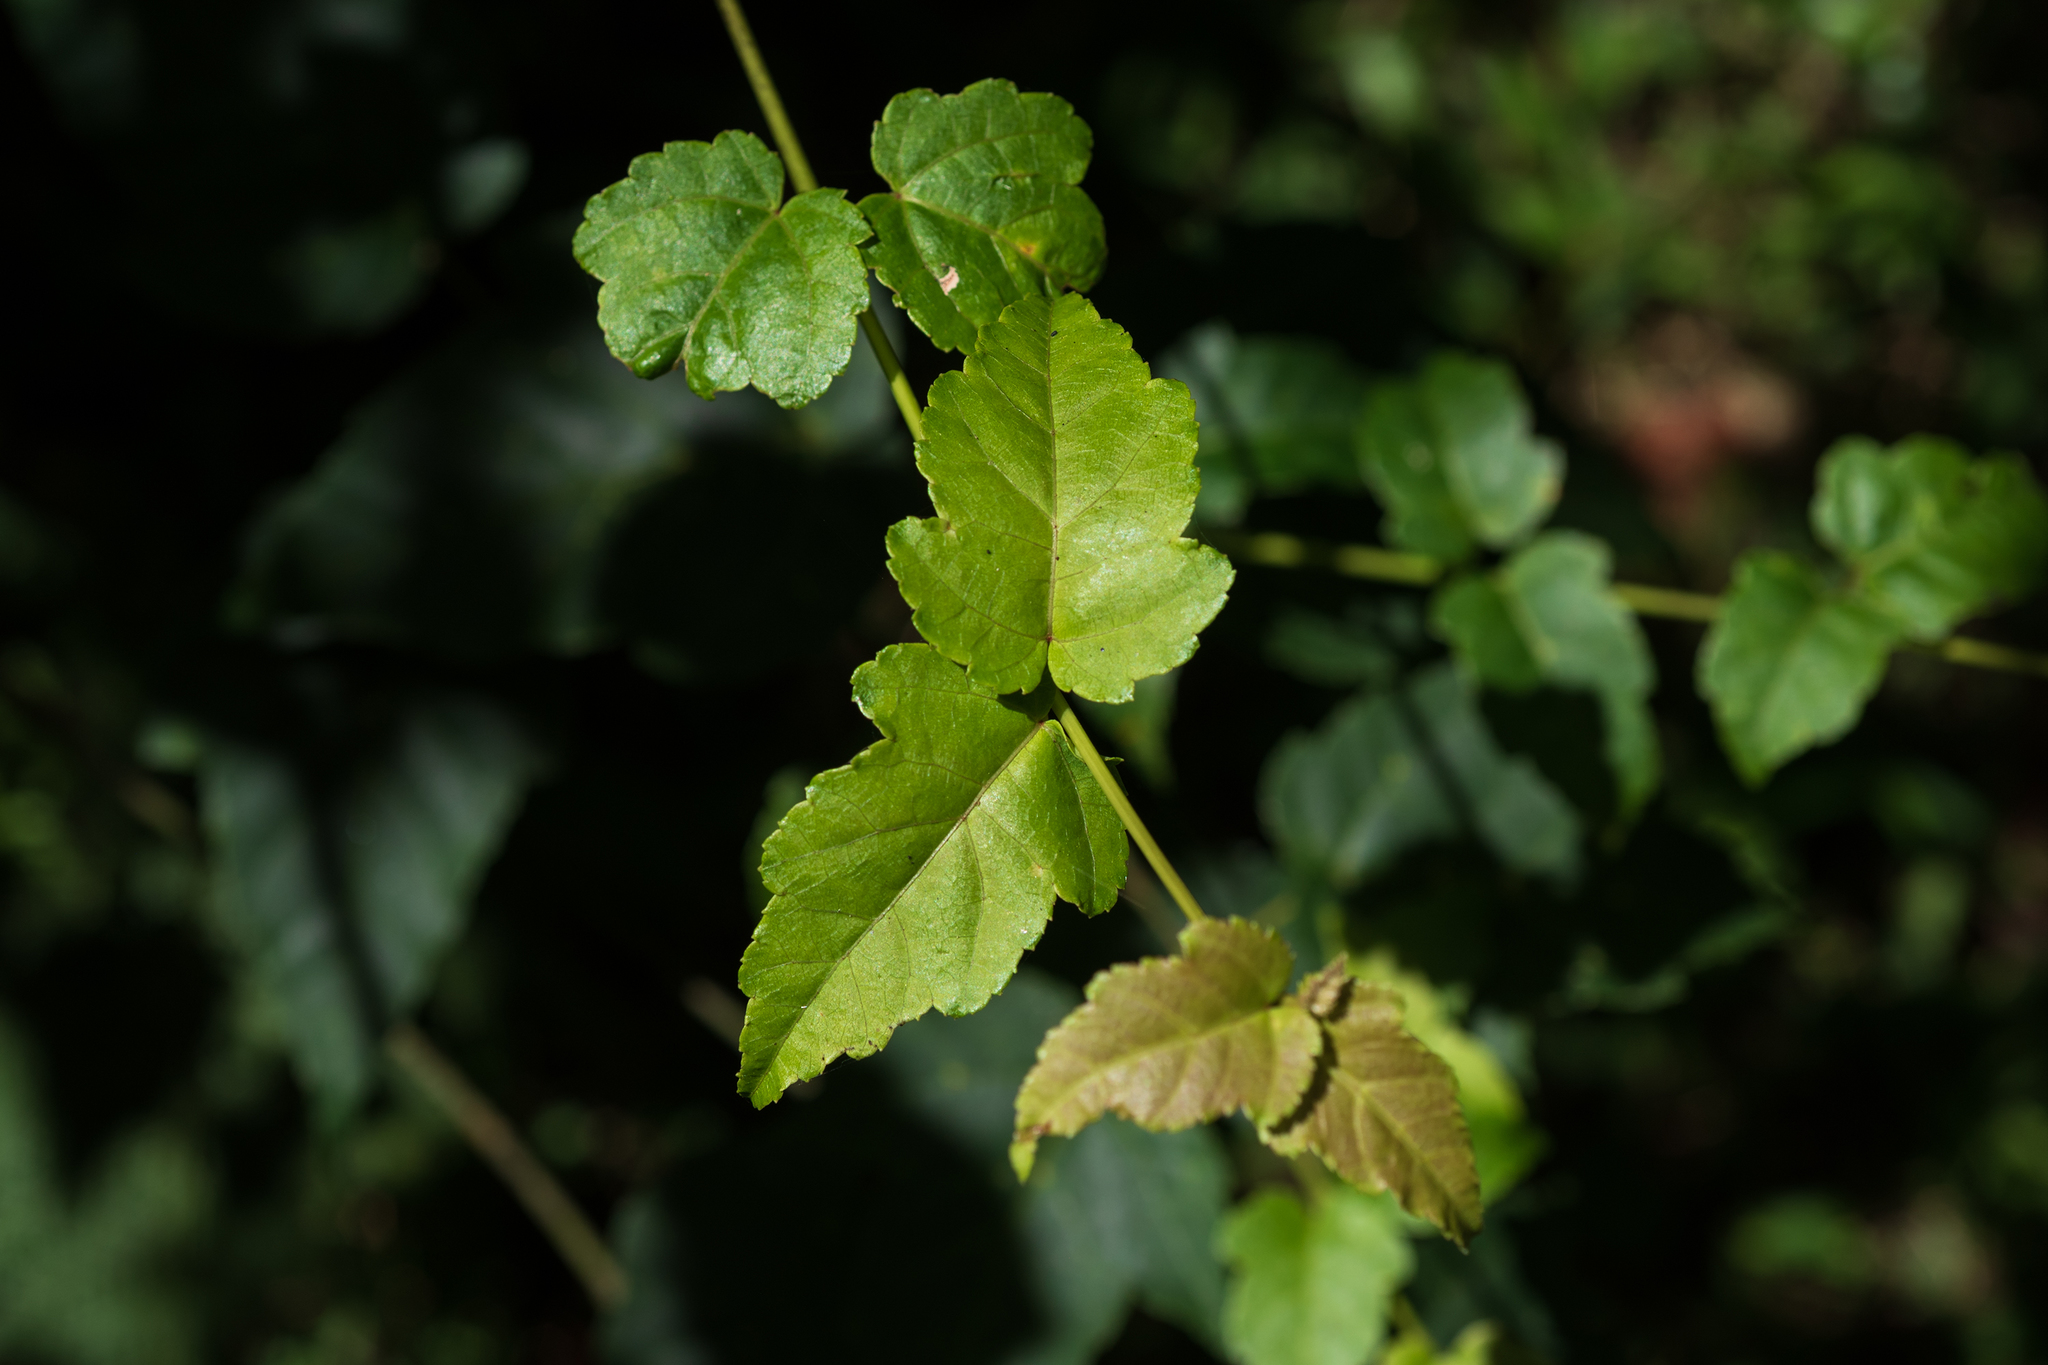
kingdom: Plantae
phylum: Tracheophyta
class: Magnoliopsida
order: Sapindales
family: Sapindaceae
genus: Acer
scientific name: Acer caudatifolium
